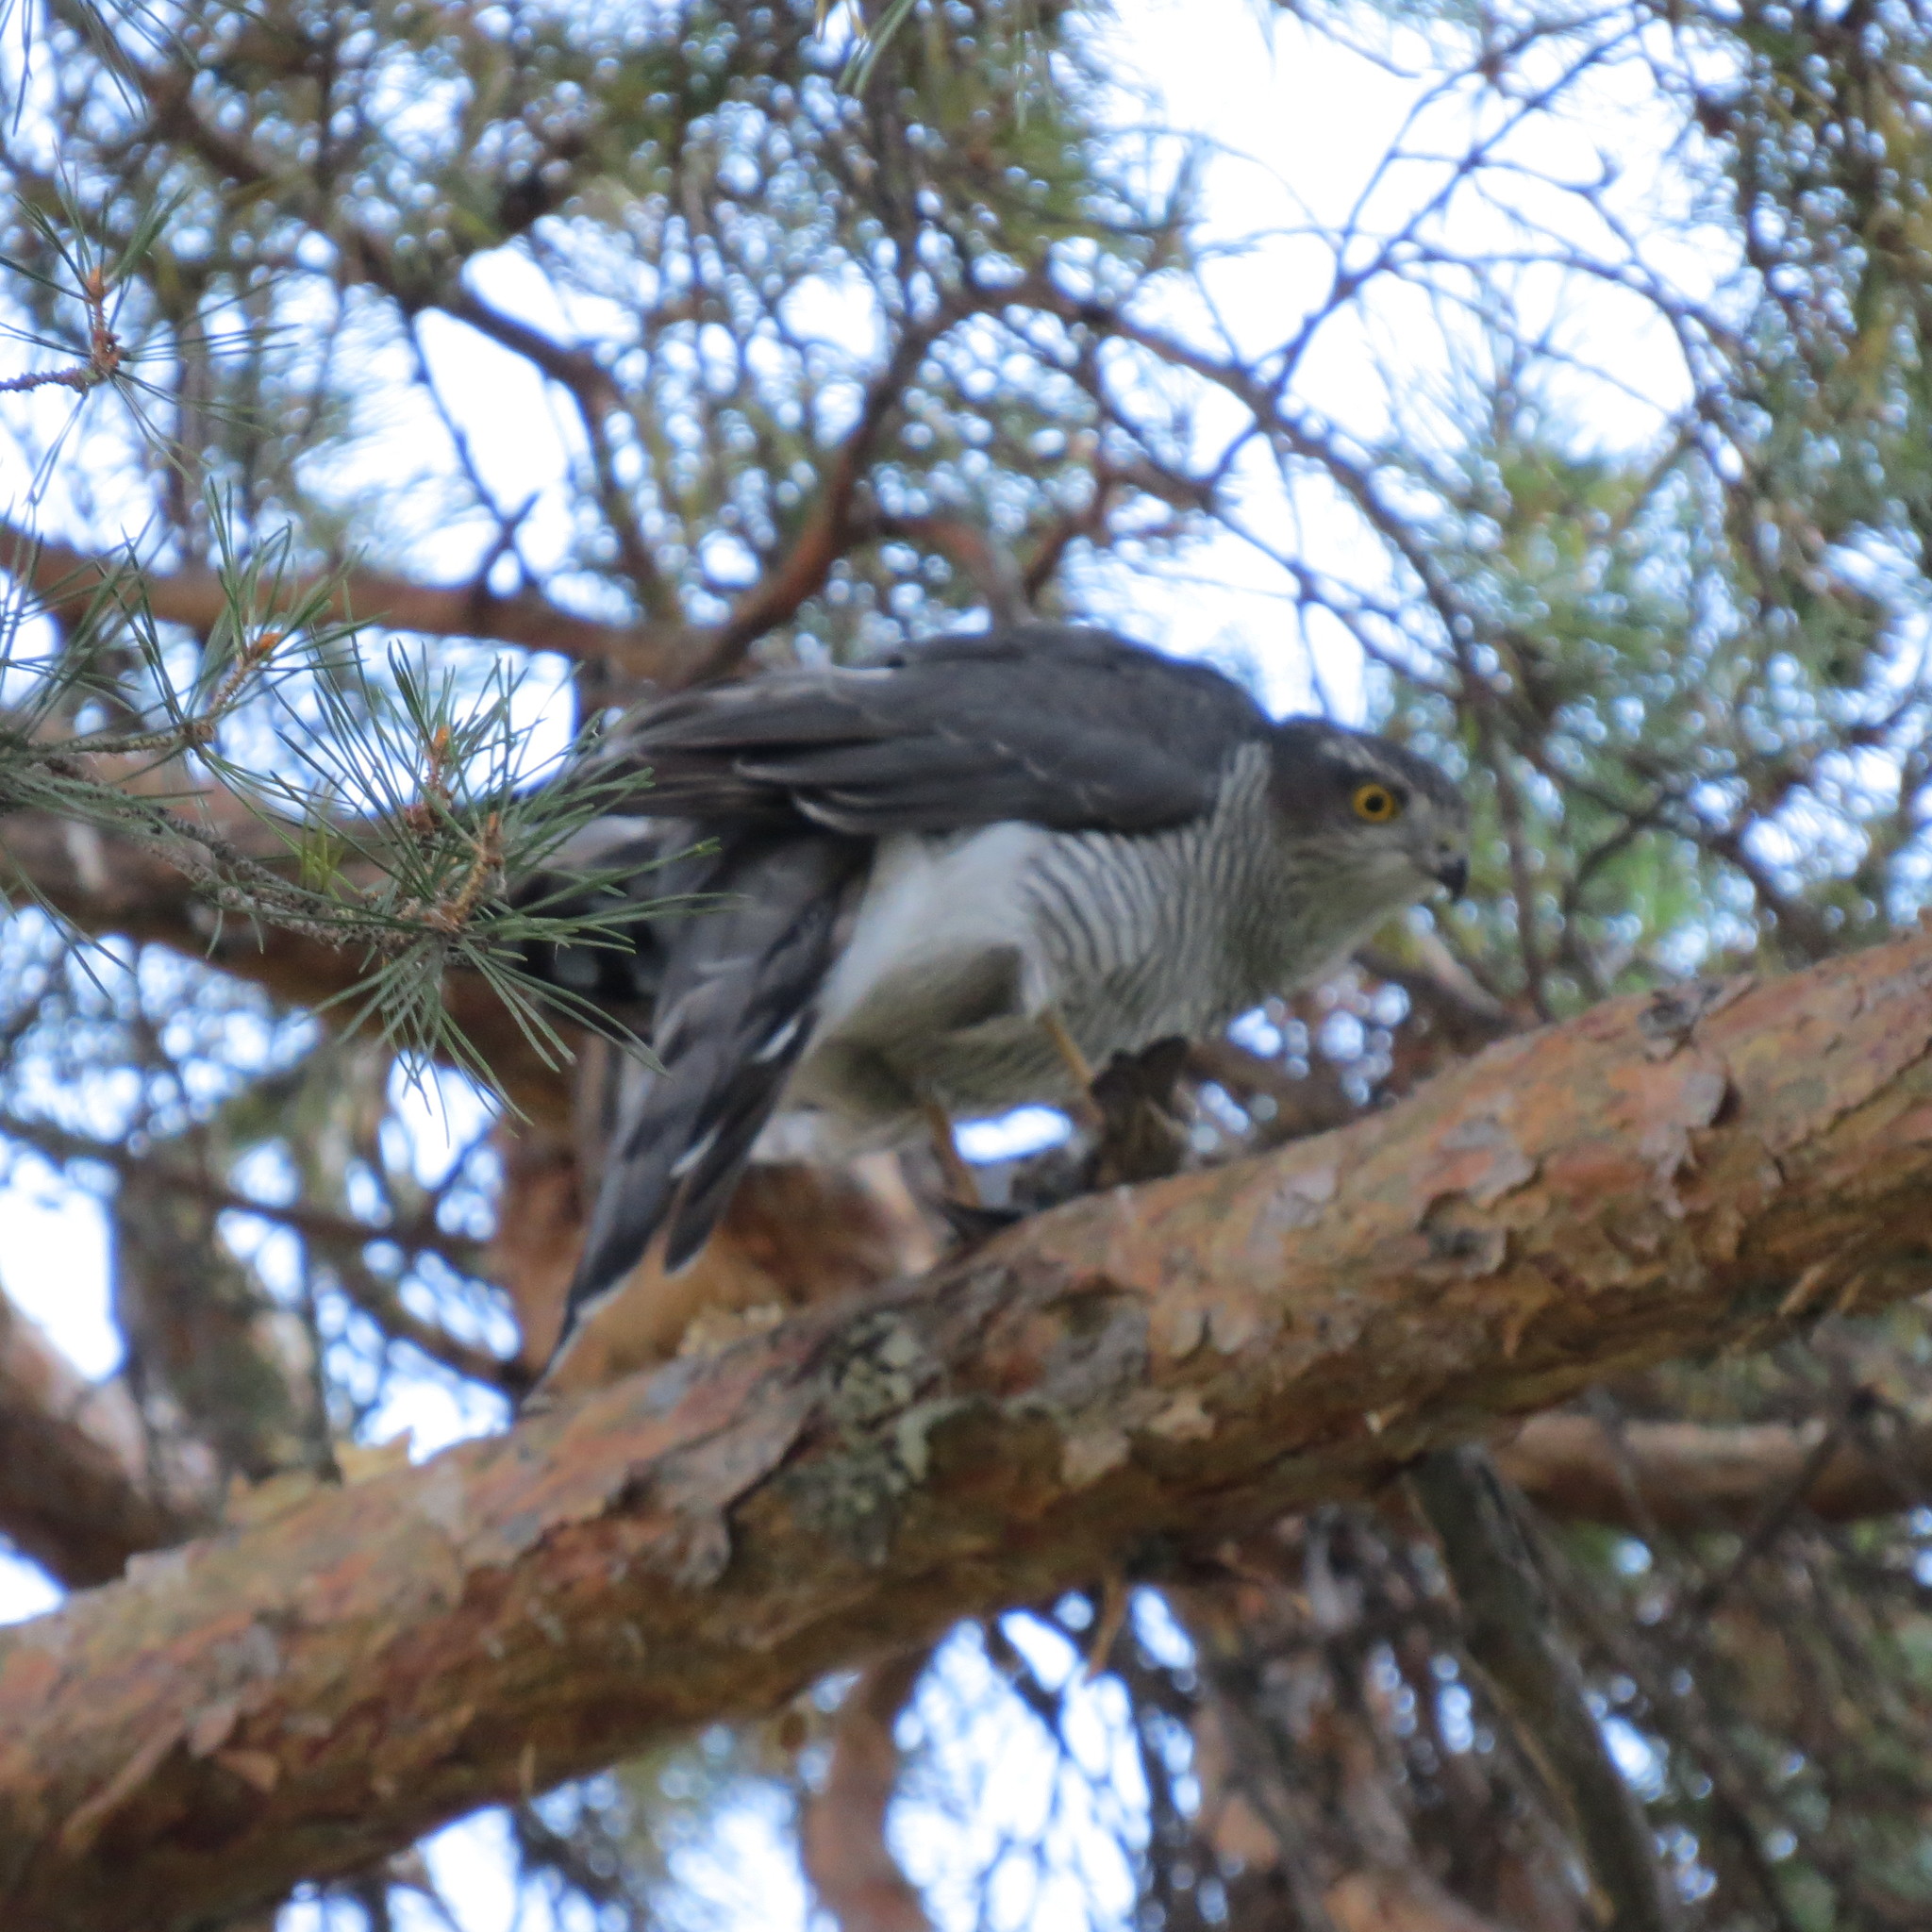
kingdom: Animalia
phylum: Chordata
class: Aves
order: Accipitriformes
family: Accipitridae
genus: Accipiter
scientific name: Accipiter nisus
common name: Eurasian sparrowhawk
